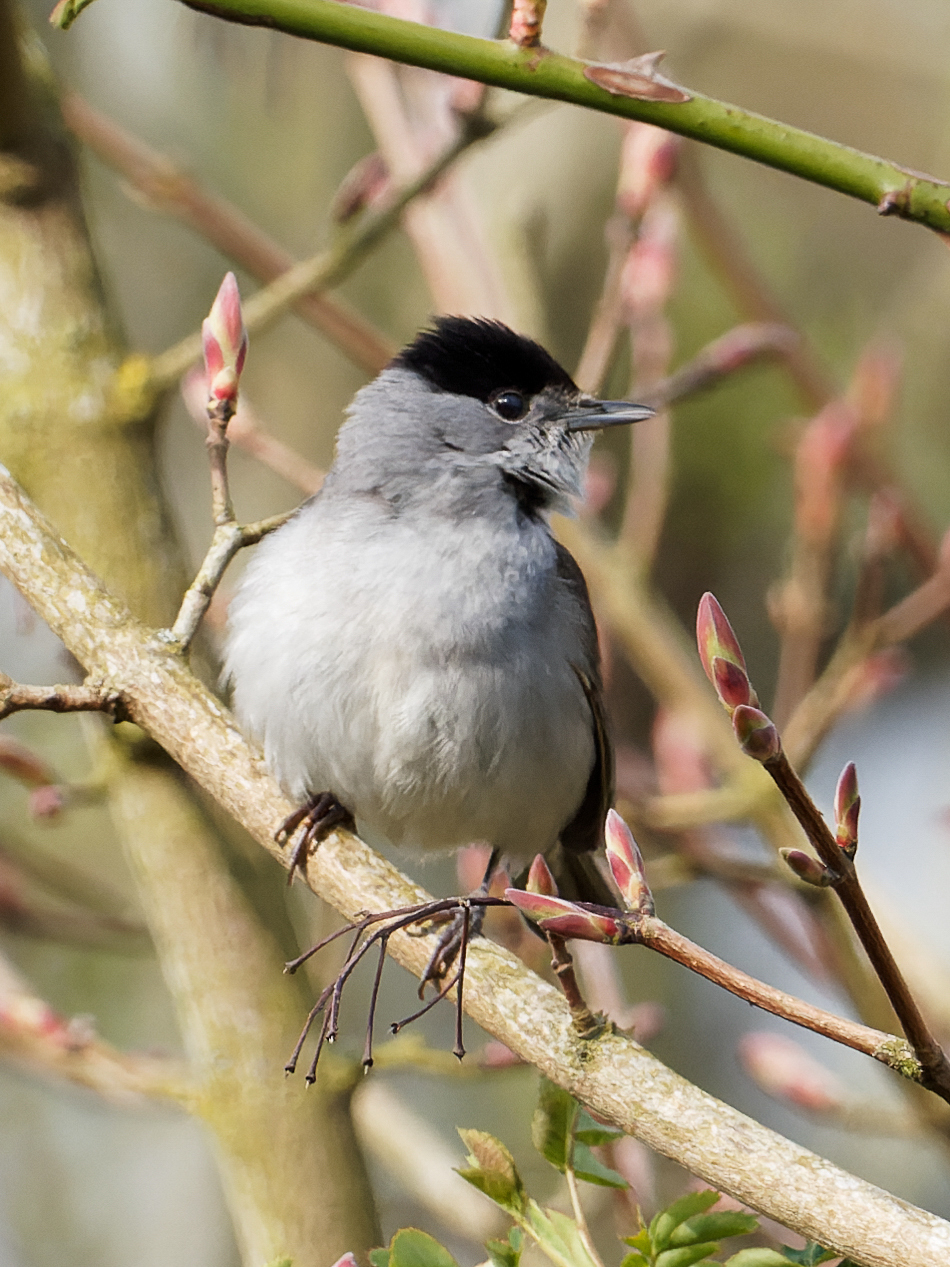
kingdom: Animalia
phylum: Chordata
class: Aves
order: Passeriformes
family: Sylviidae
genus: Sylvia
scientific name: Sylvia atricapilla
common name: Eurasian blackcap
